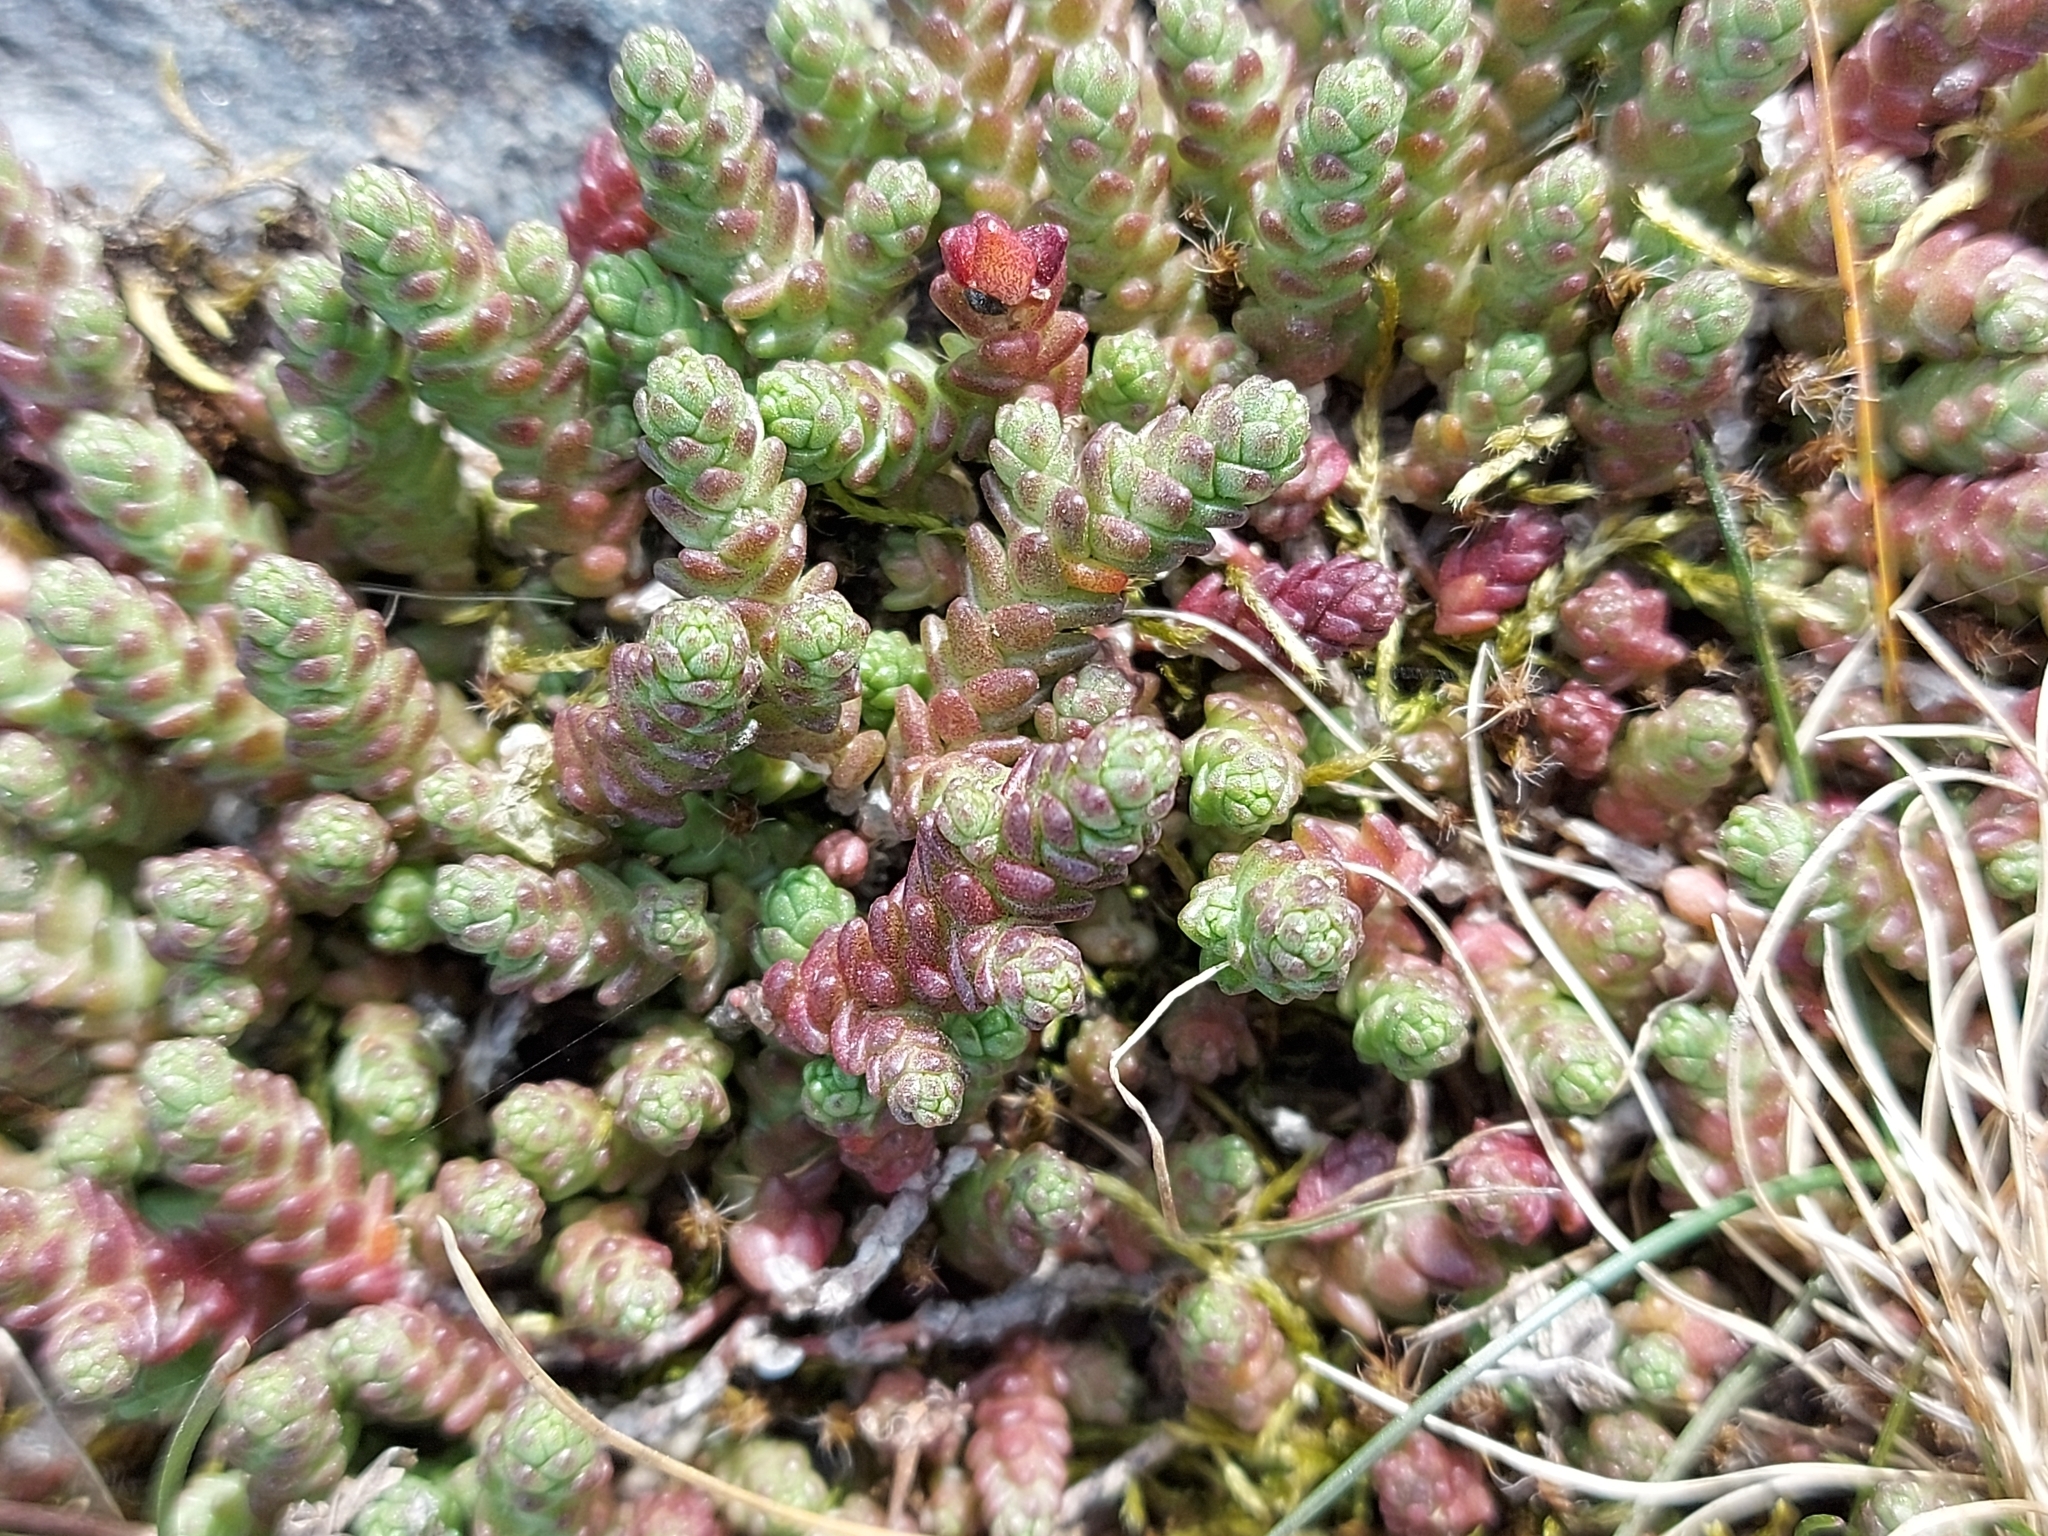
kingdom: Plantae
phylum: Tracheophyta
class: Magnoliopsida
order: Saxifragales
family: Crassulaceae
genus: Sedum
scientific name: Sedum acre
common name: Biting stonecrop
